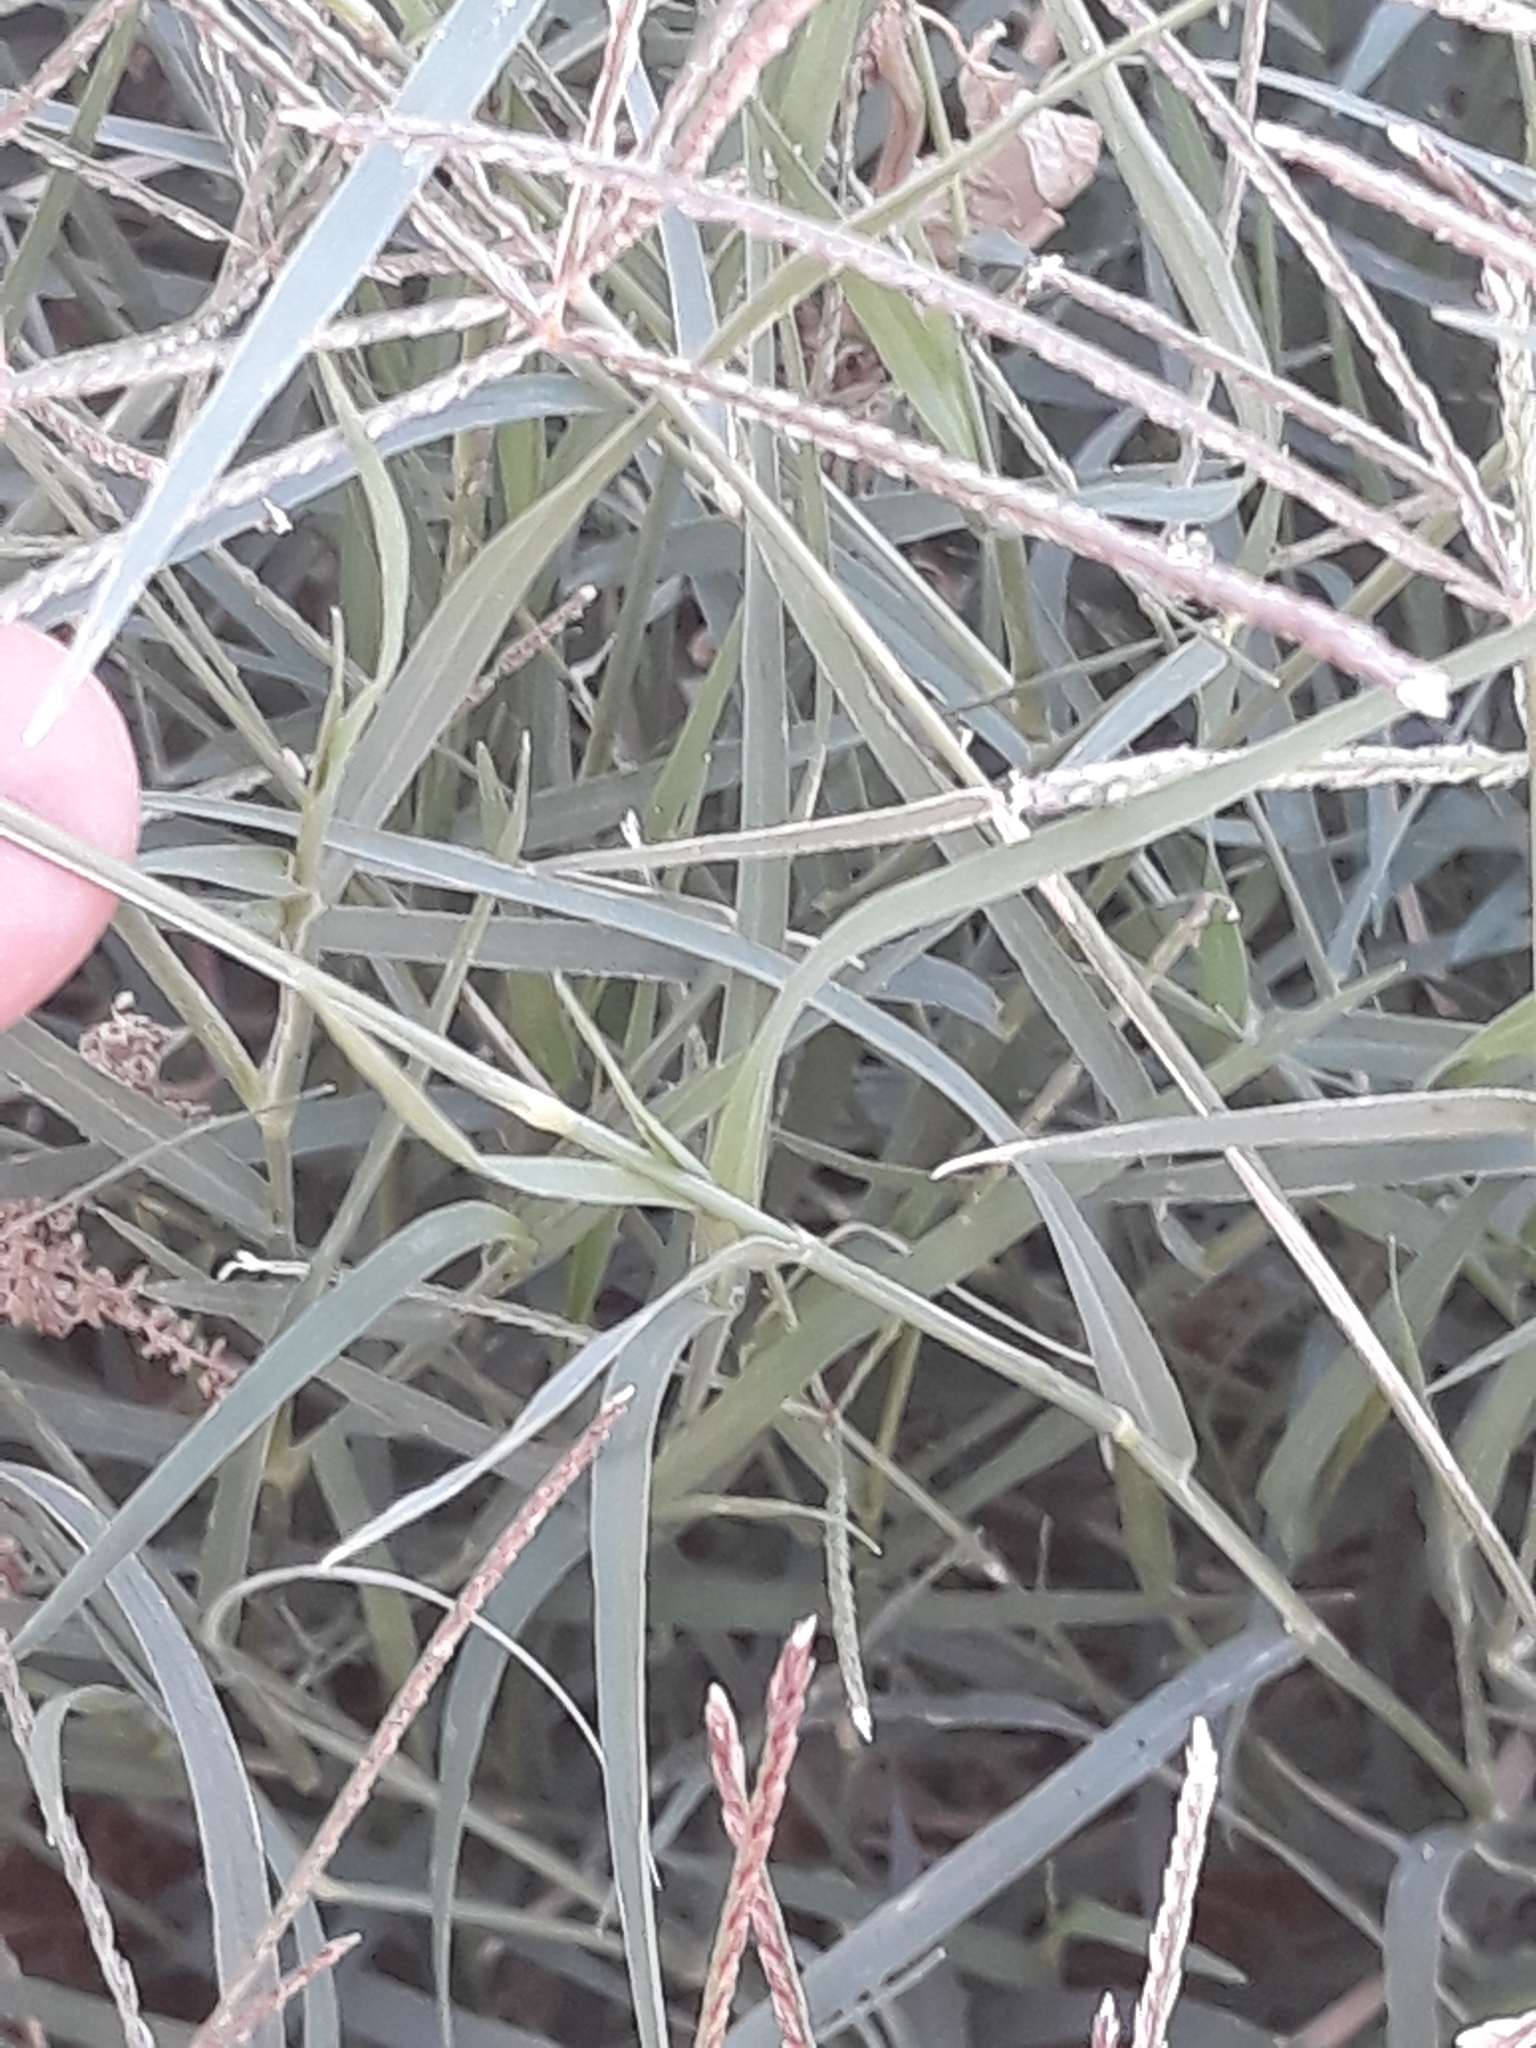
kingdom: Plantae
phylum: Tracheophyta
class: Liliopsida
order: Poales
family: Poaceae
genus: Cynodon
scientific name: Cynodon dactylon
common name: Bermuda grass
